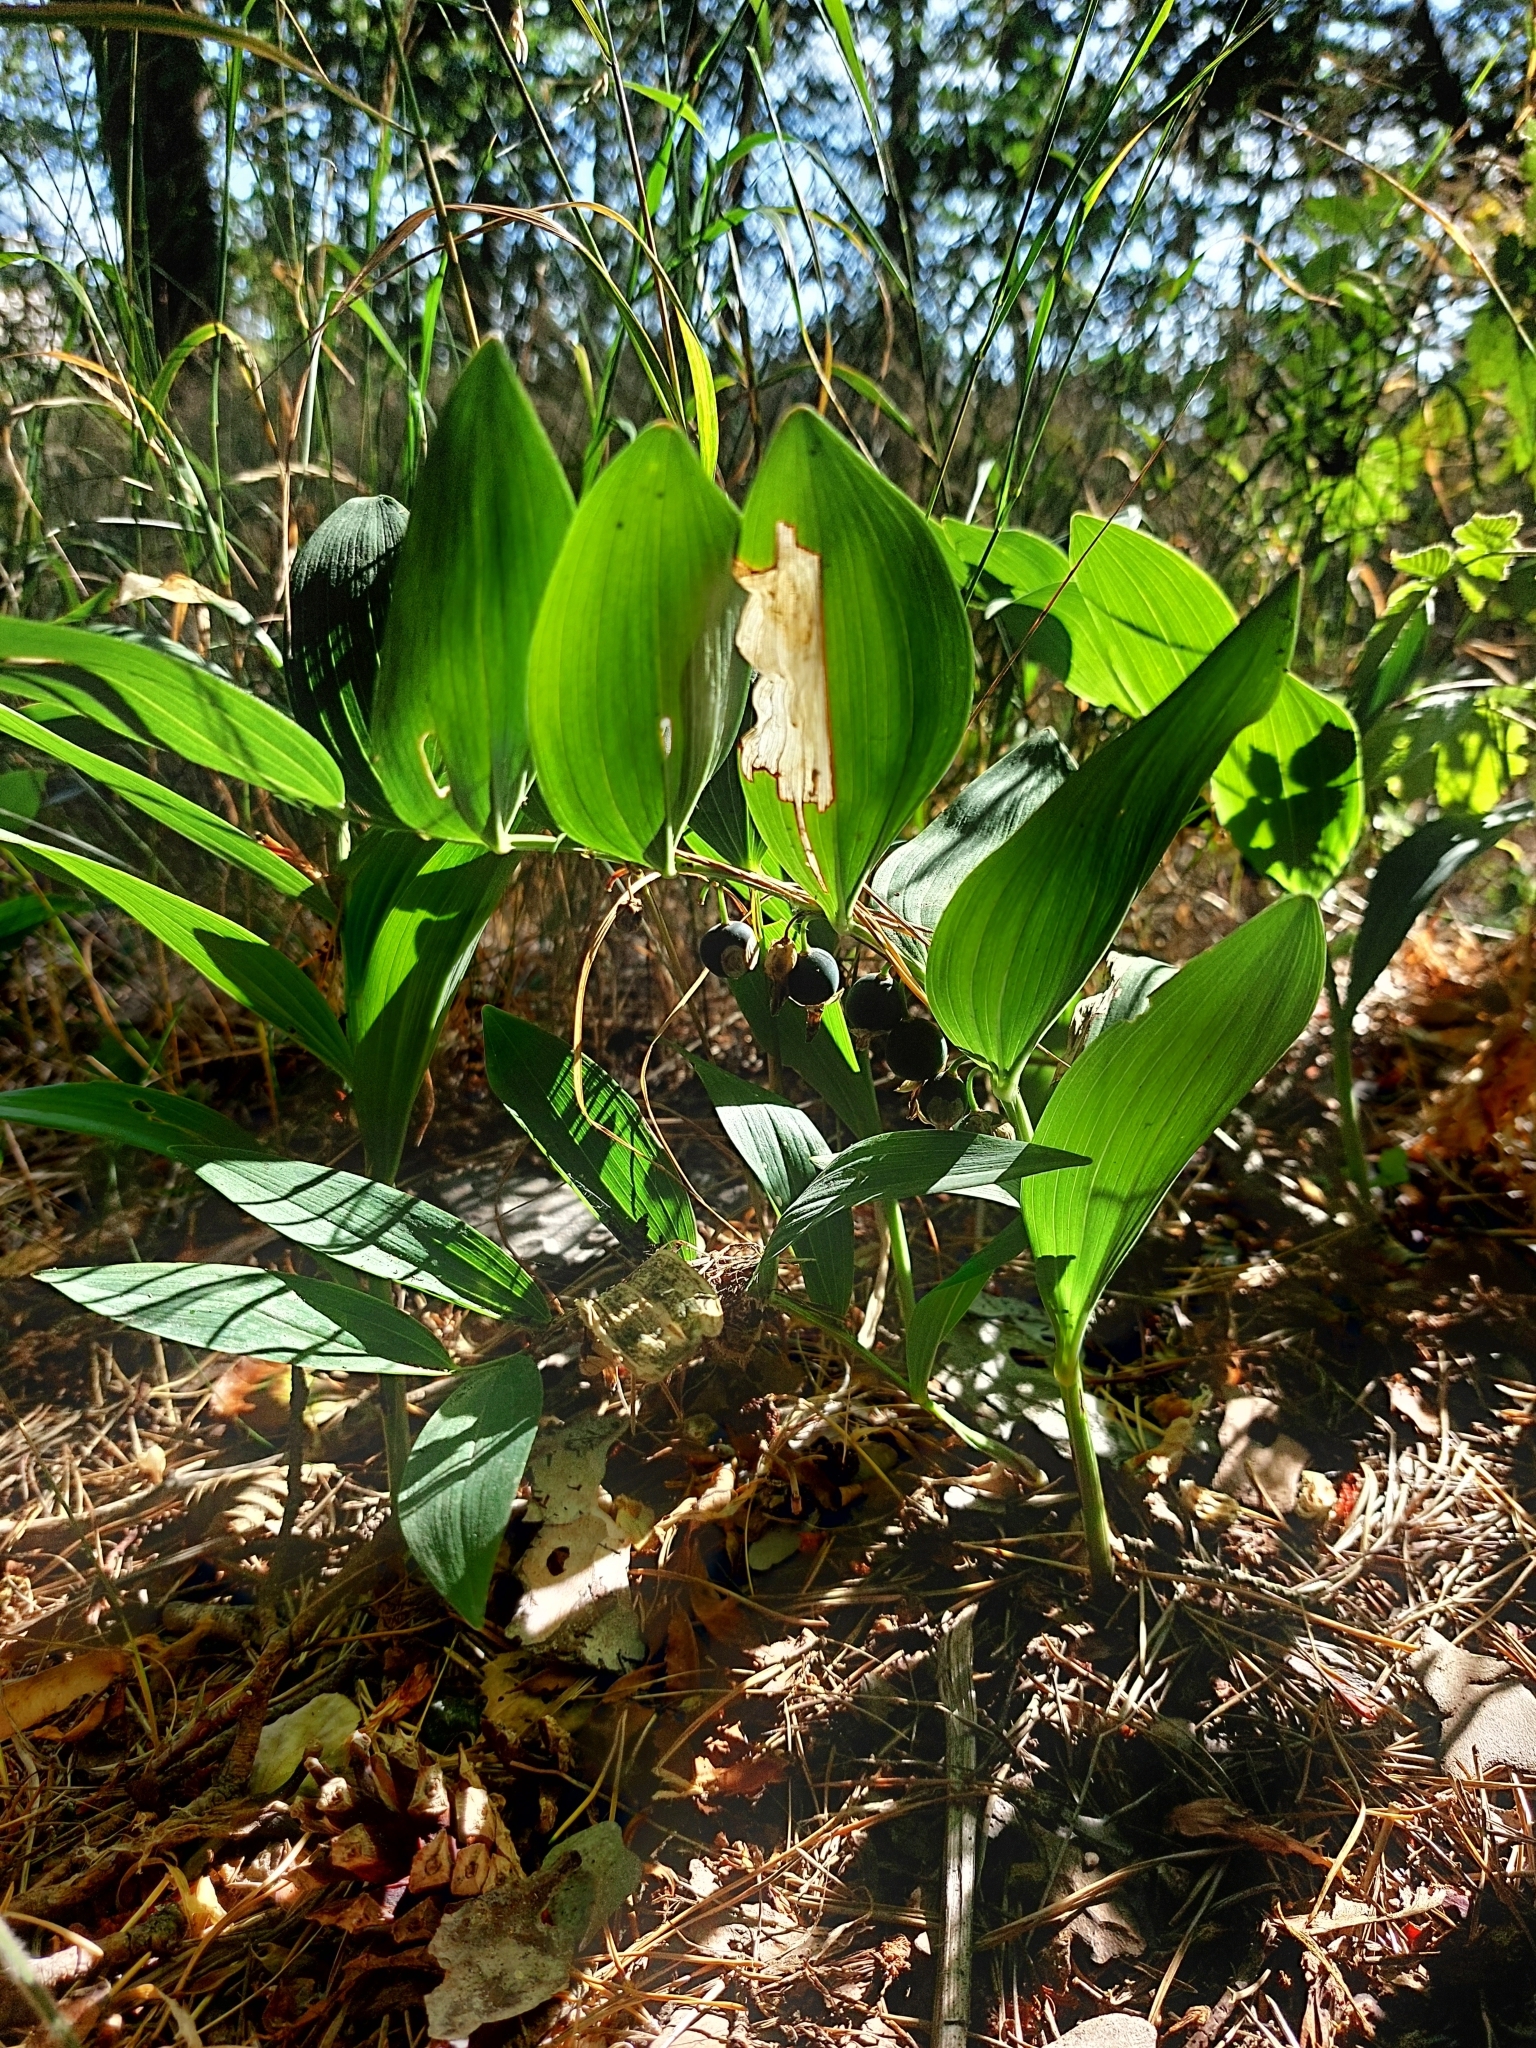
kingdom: Plantae
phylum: Tracheophyta
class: Liliopsida
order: Asparagales
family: Asparagaceae
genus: Polygonatum
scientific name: Polygonatum odoratum
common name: Angular solomon's-seal
